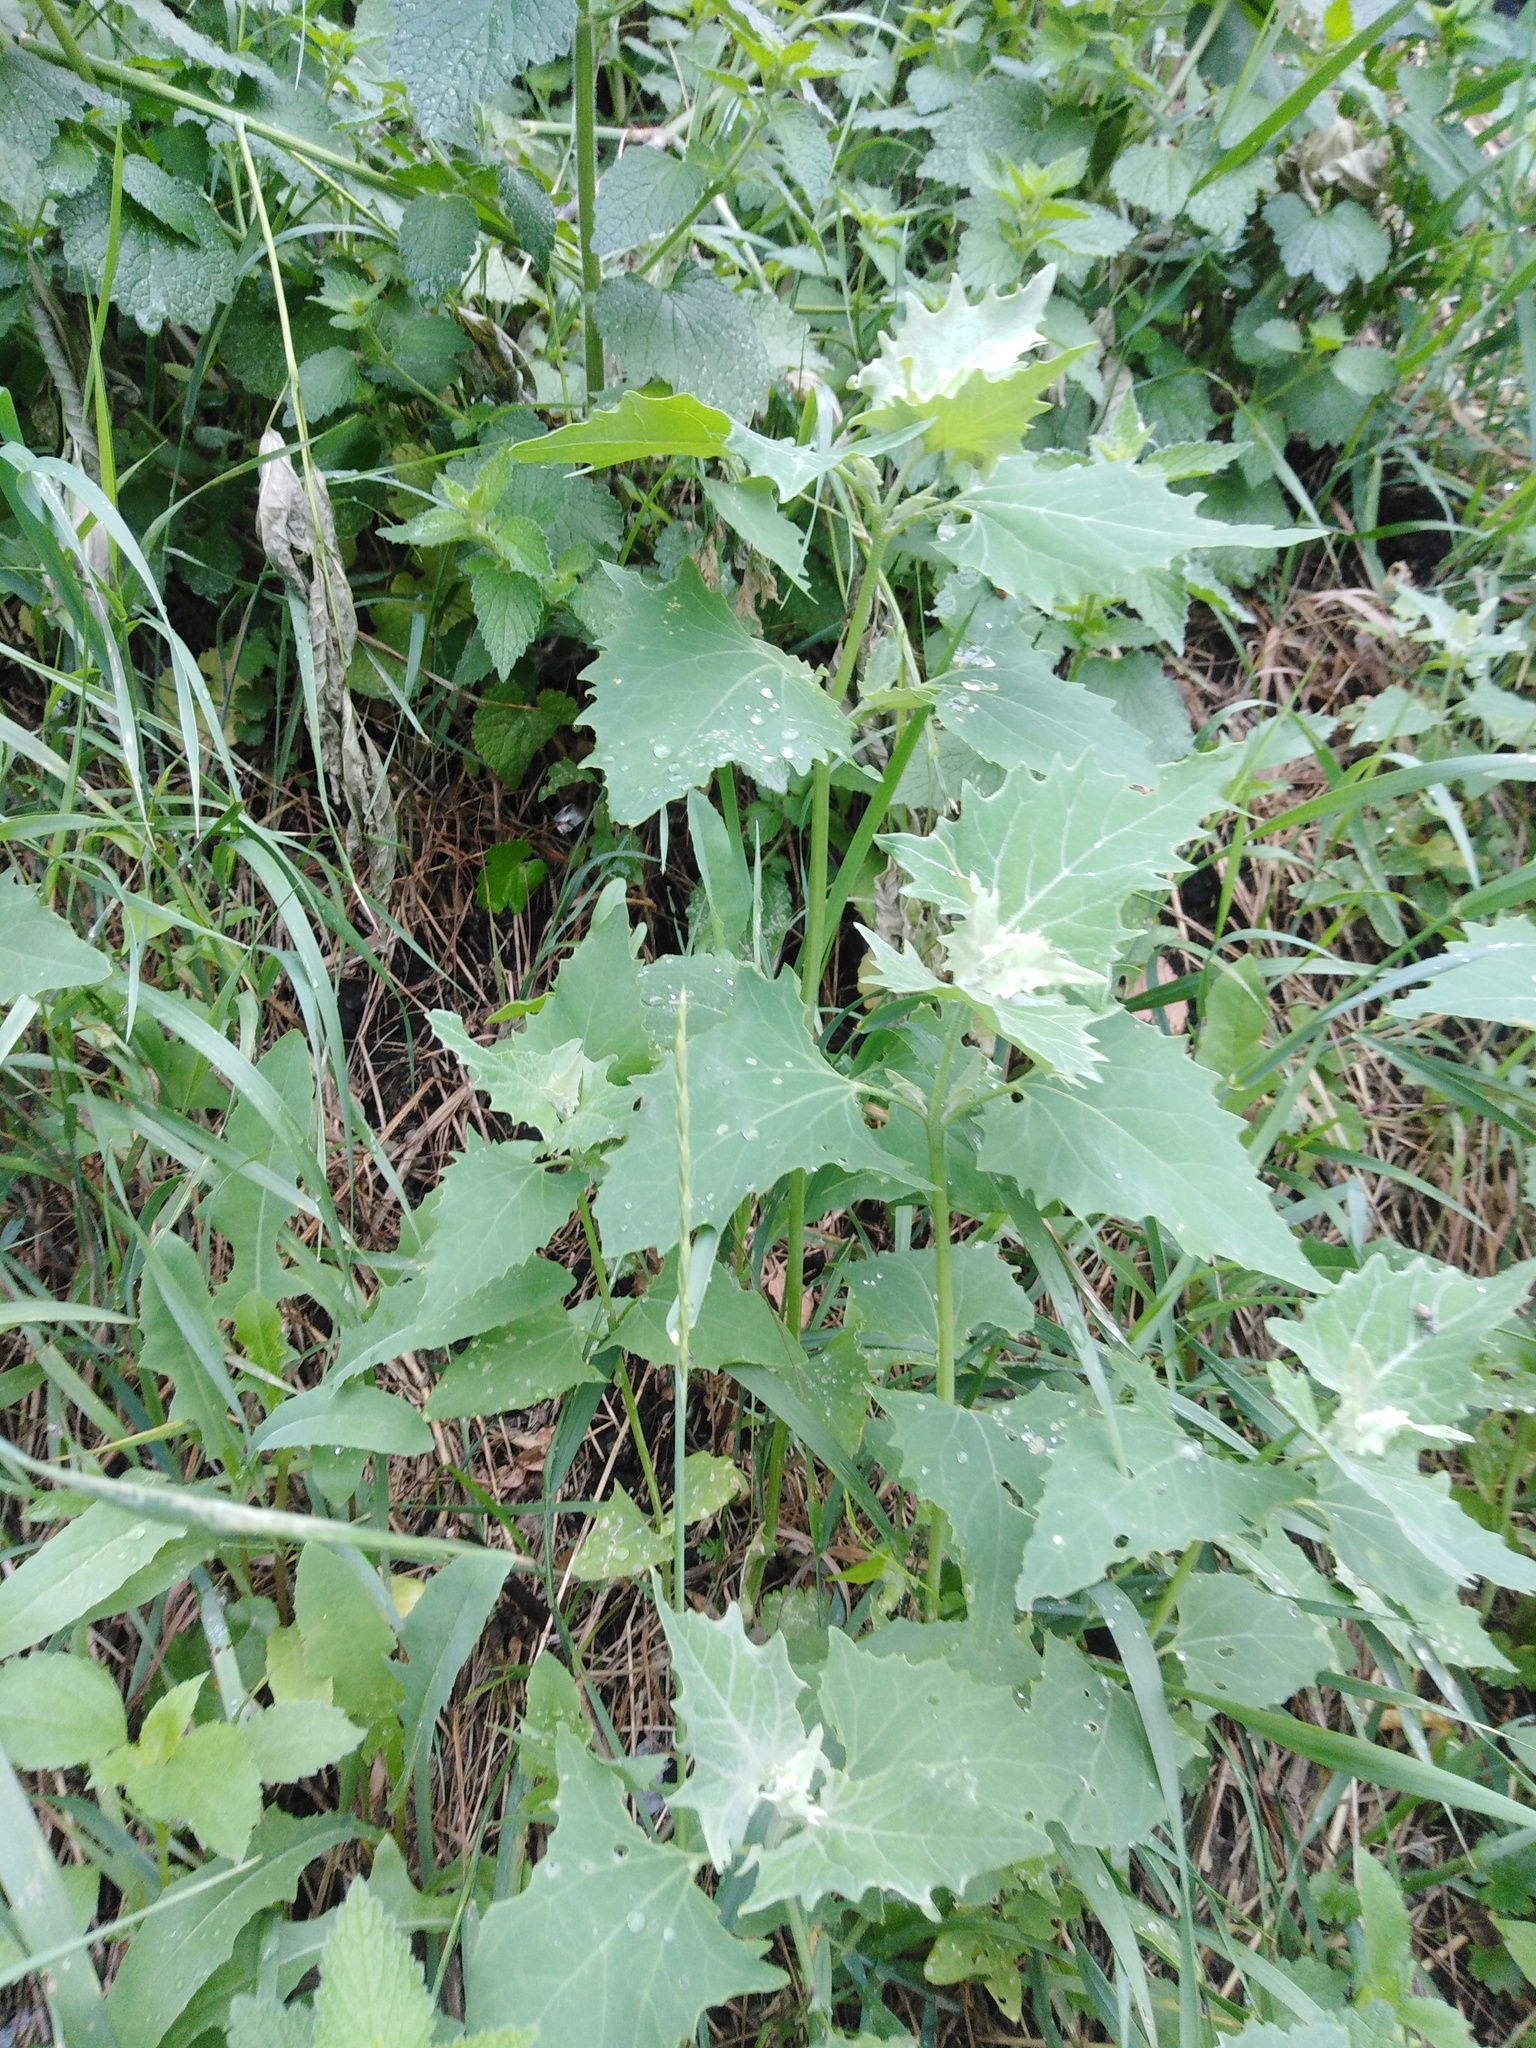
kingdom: Plantae
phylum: Tracheophyta
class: Magnoliopsida
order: Caryophyllales
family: Amaranthaceae
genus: Atriplex
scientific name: Atriplex sagittata
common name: Purple orache
